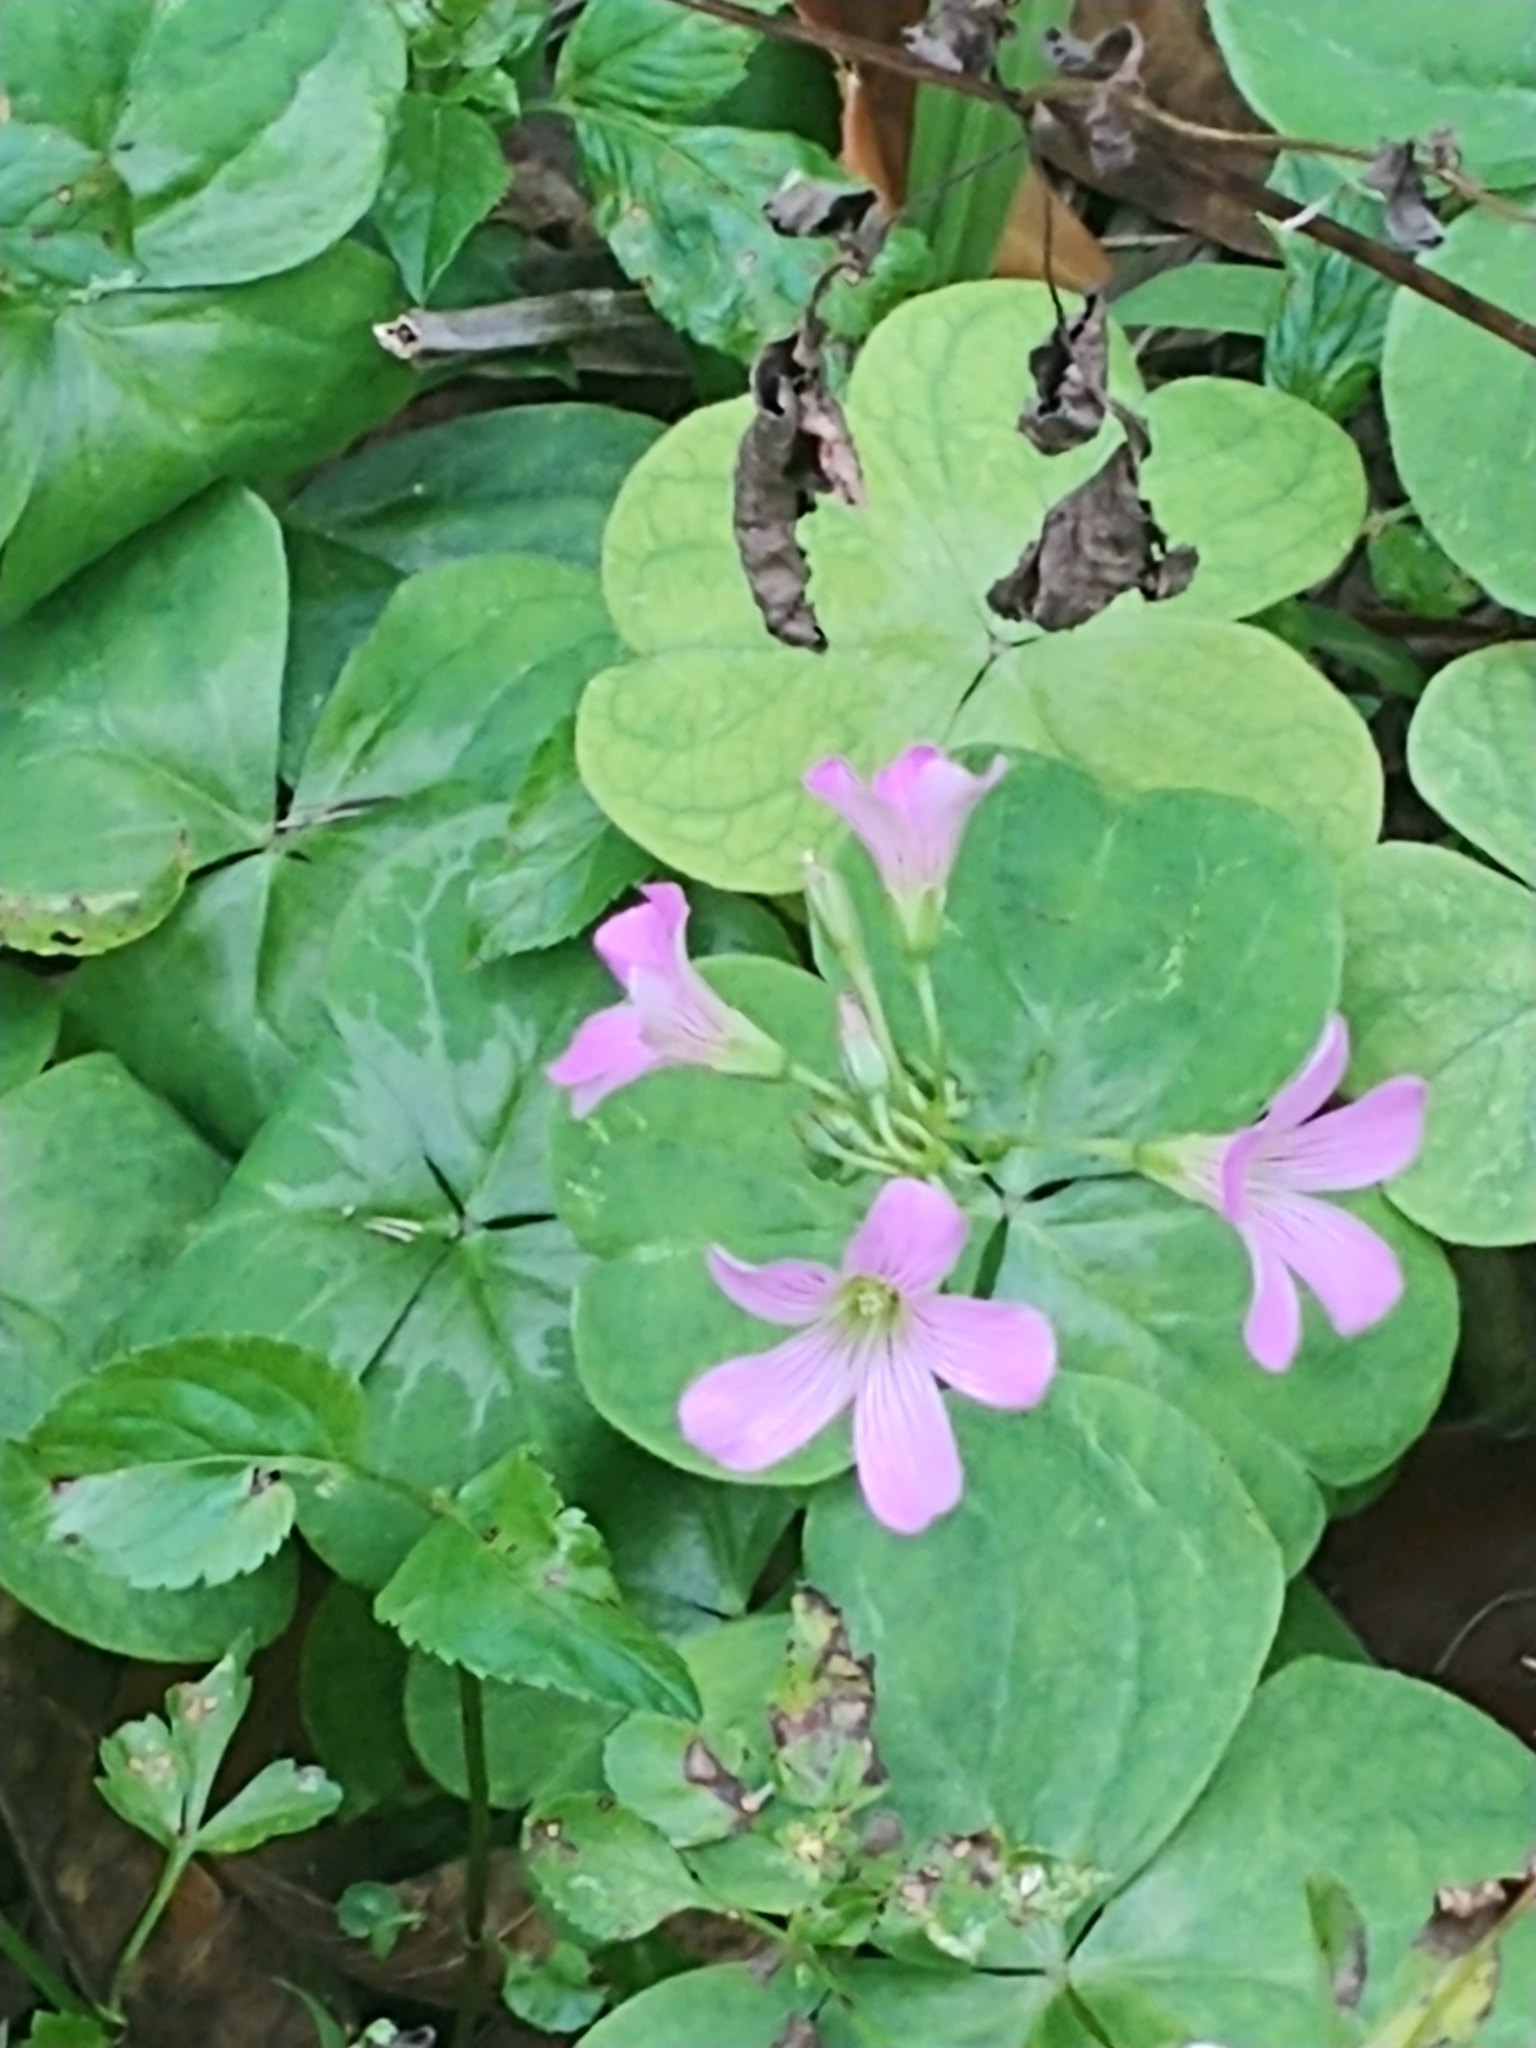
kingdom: Plantae
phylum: Tracheophyta
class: Magnoliopsida
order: Oxalidales
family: Oxalidaceae
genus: Oxalis
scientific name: Oxalis debilis
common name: Large-flowered pink-sorrel
